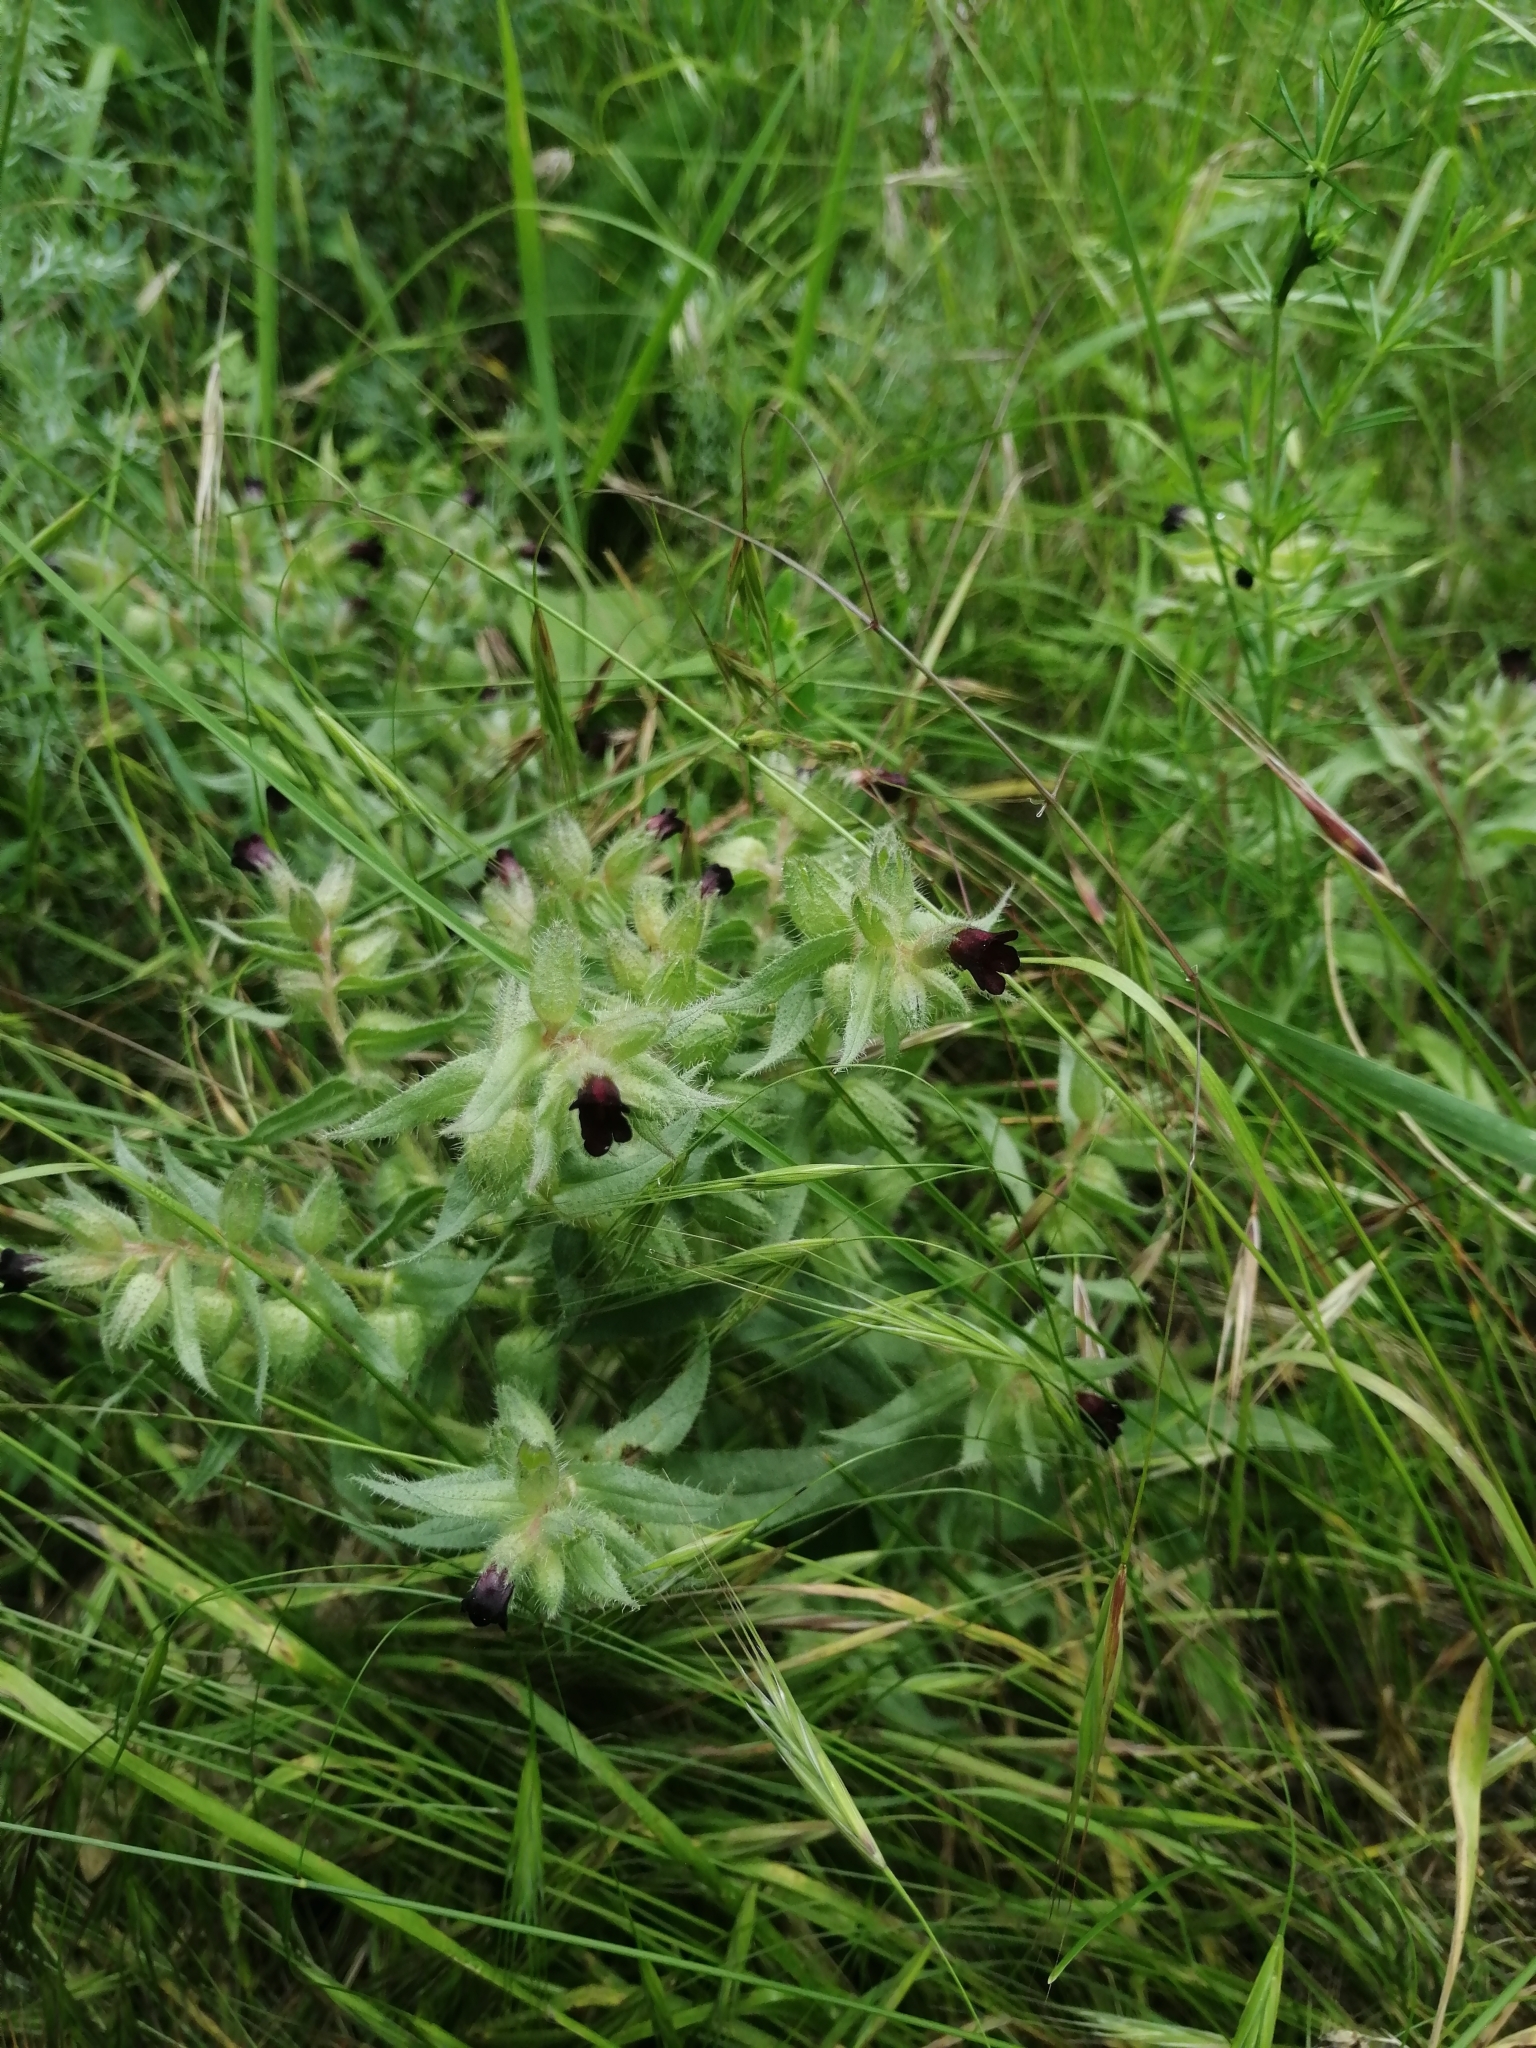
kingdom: Plantae
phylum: Tracheophyta
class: Magnoliopsida
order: Boraginales
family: Boraginaceae
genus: Nonea
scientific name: Nonea pulla
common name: Brown nonea
